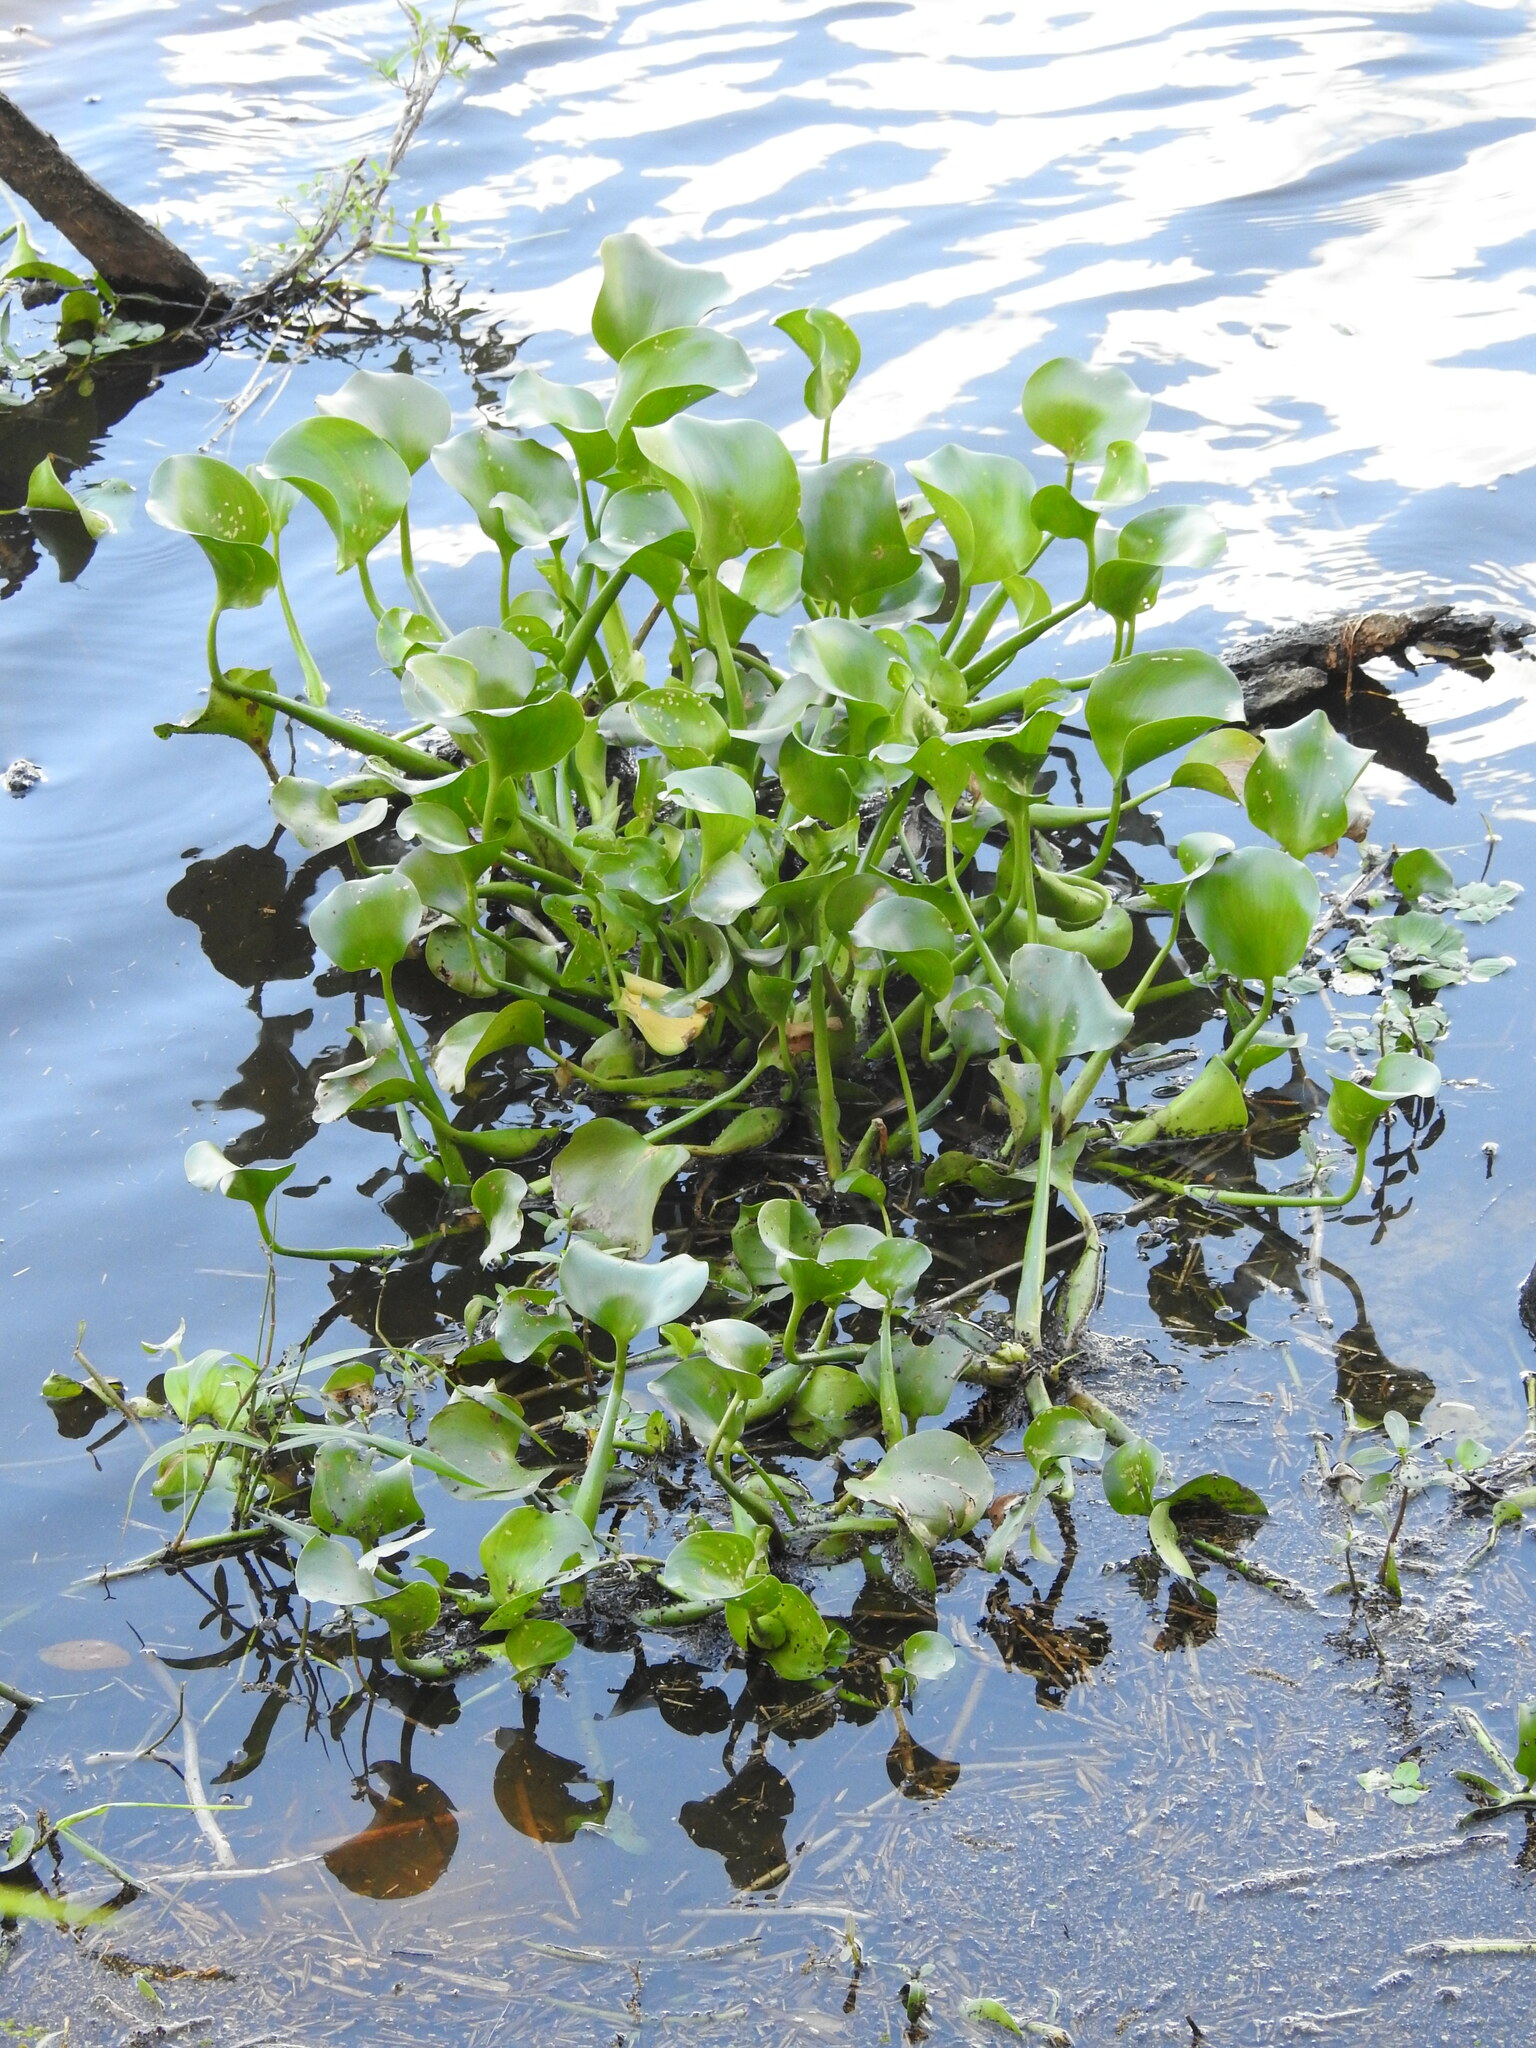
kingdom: Plantae
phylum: Tracheophyta
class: Liliopsida
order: Commelinales
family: Pontederiaceae
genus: Pontederia
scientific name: Pontederia crassipes
